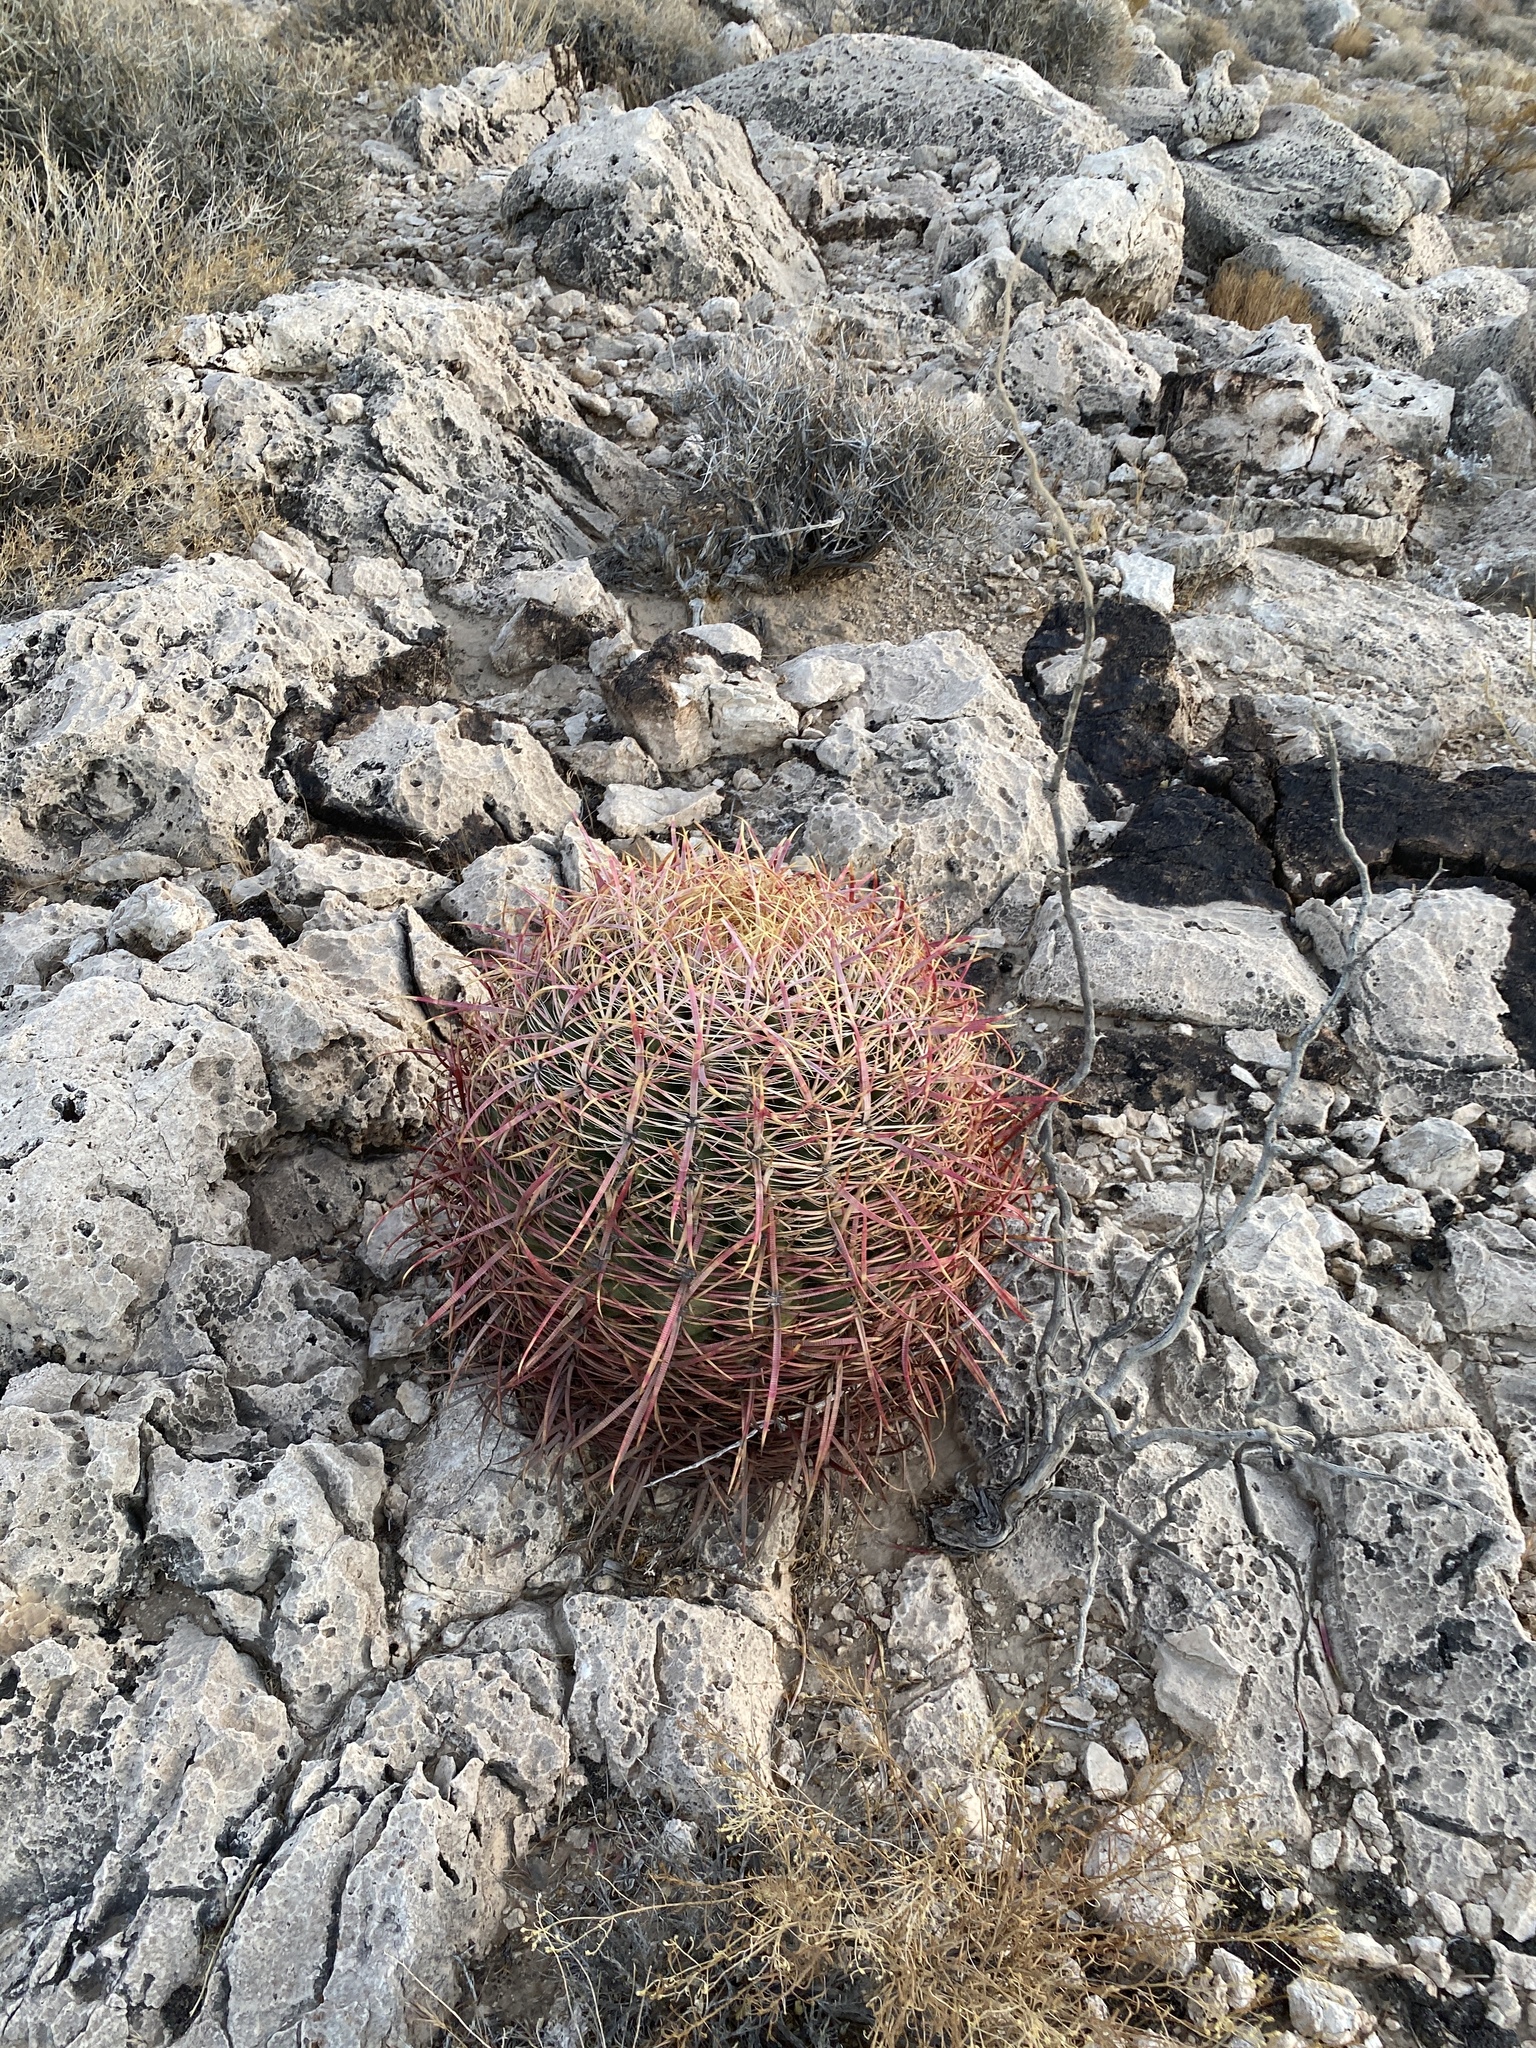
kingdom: Plantae
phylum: Tracheophyta
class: Magnoliopsida
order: Caryophyllales
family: Cactaceae
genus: Ferocactus
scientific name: Ferocactus cylindraceus
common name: California barrel cactus
